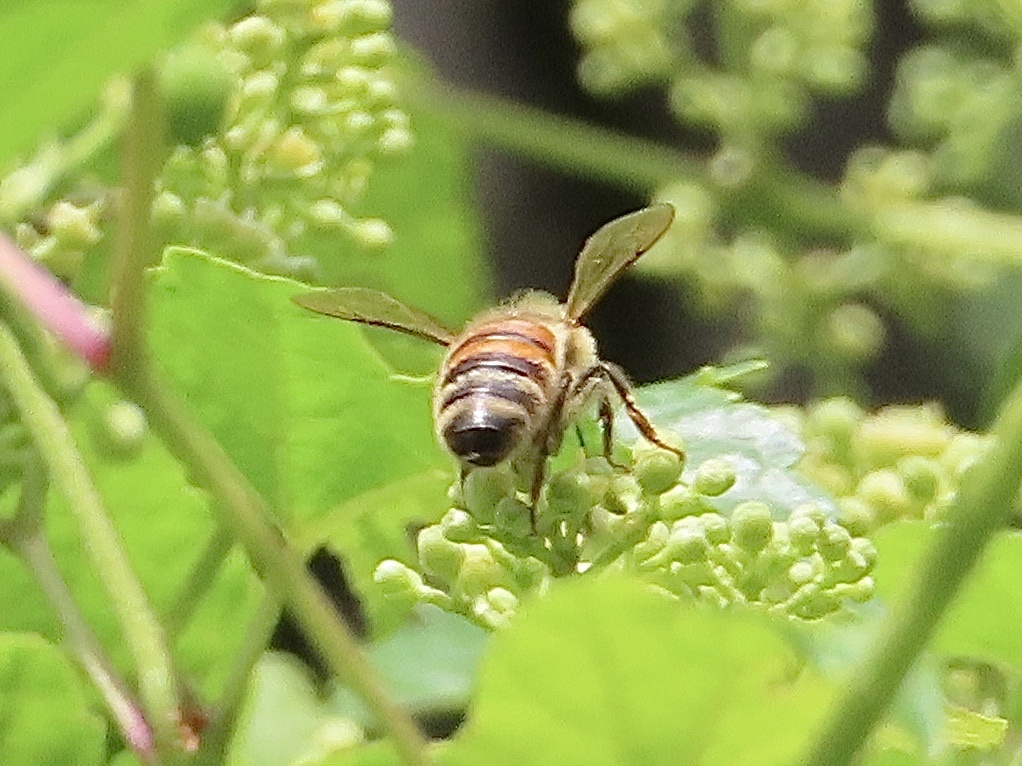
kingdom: Animalia
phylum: Arthropoda
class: Insecta
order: Hymenoptera
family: Apidae
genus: Apis
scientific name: Apis mellifera
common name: Honey bee
